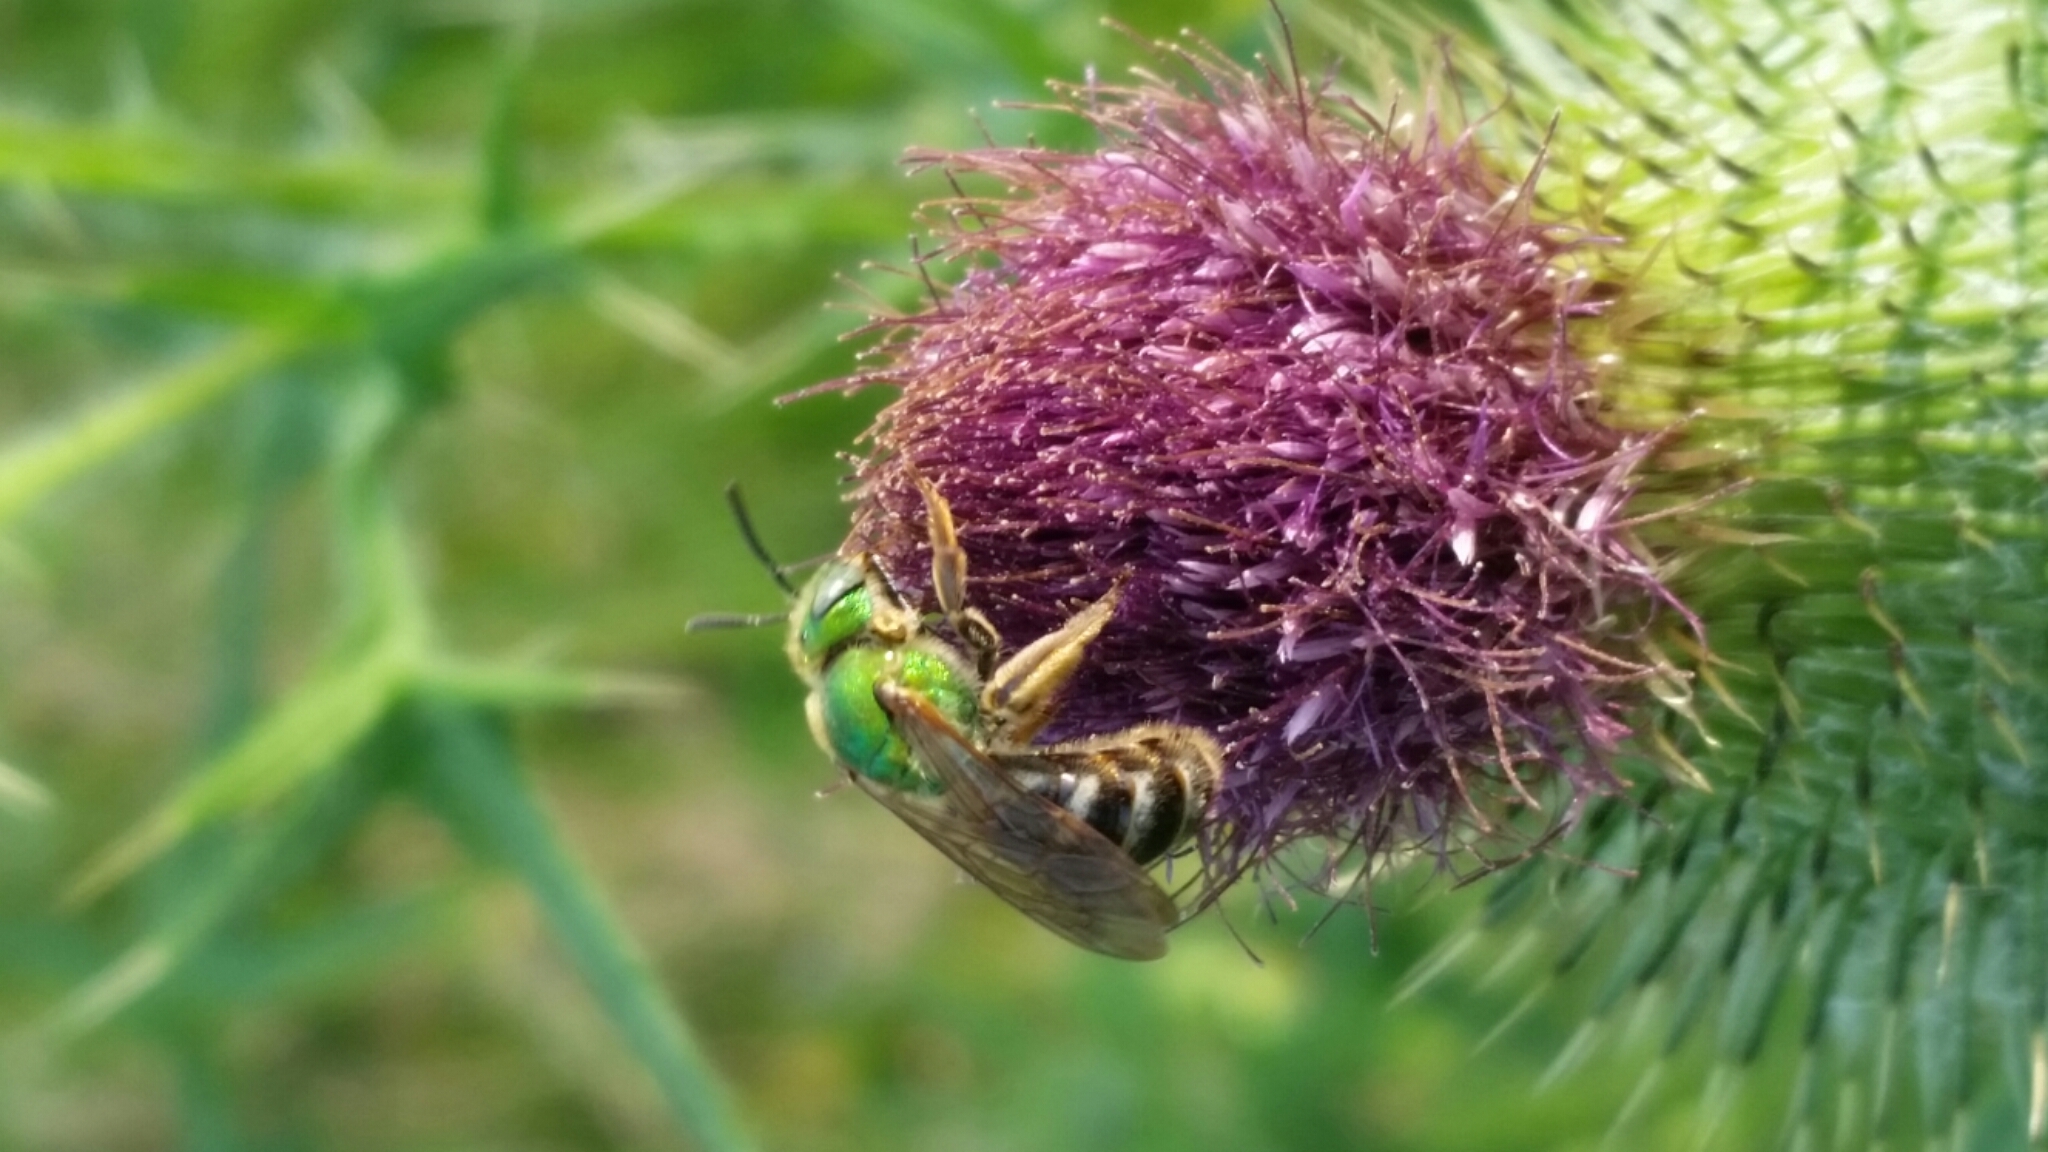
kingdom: Animalia
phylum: Arthropoda
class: Insecta
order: Hymenoptera
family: Halictidae
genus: Agapostemon
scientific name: Agapostemon virescens
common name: Bicolored striped sweat bee
